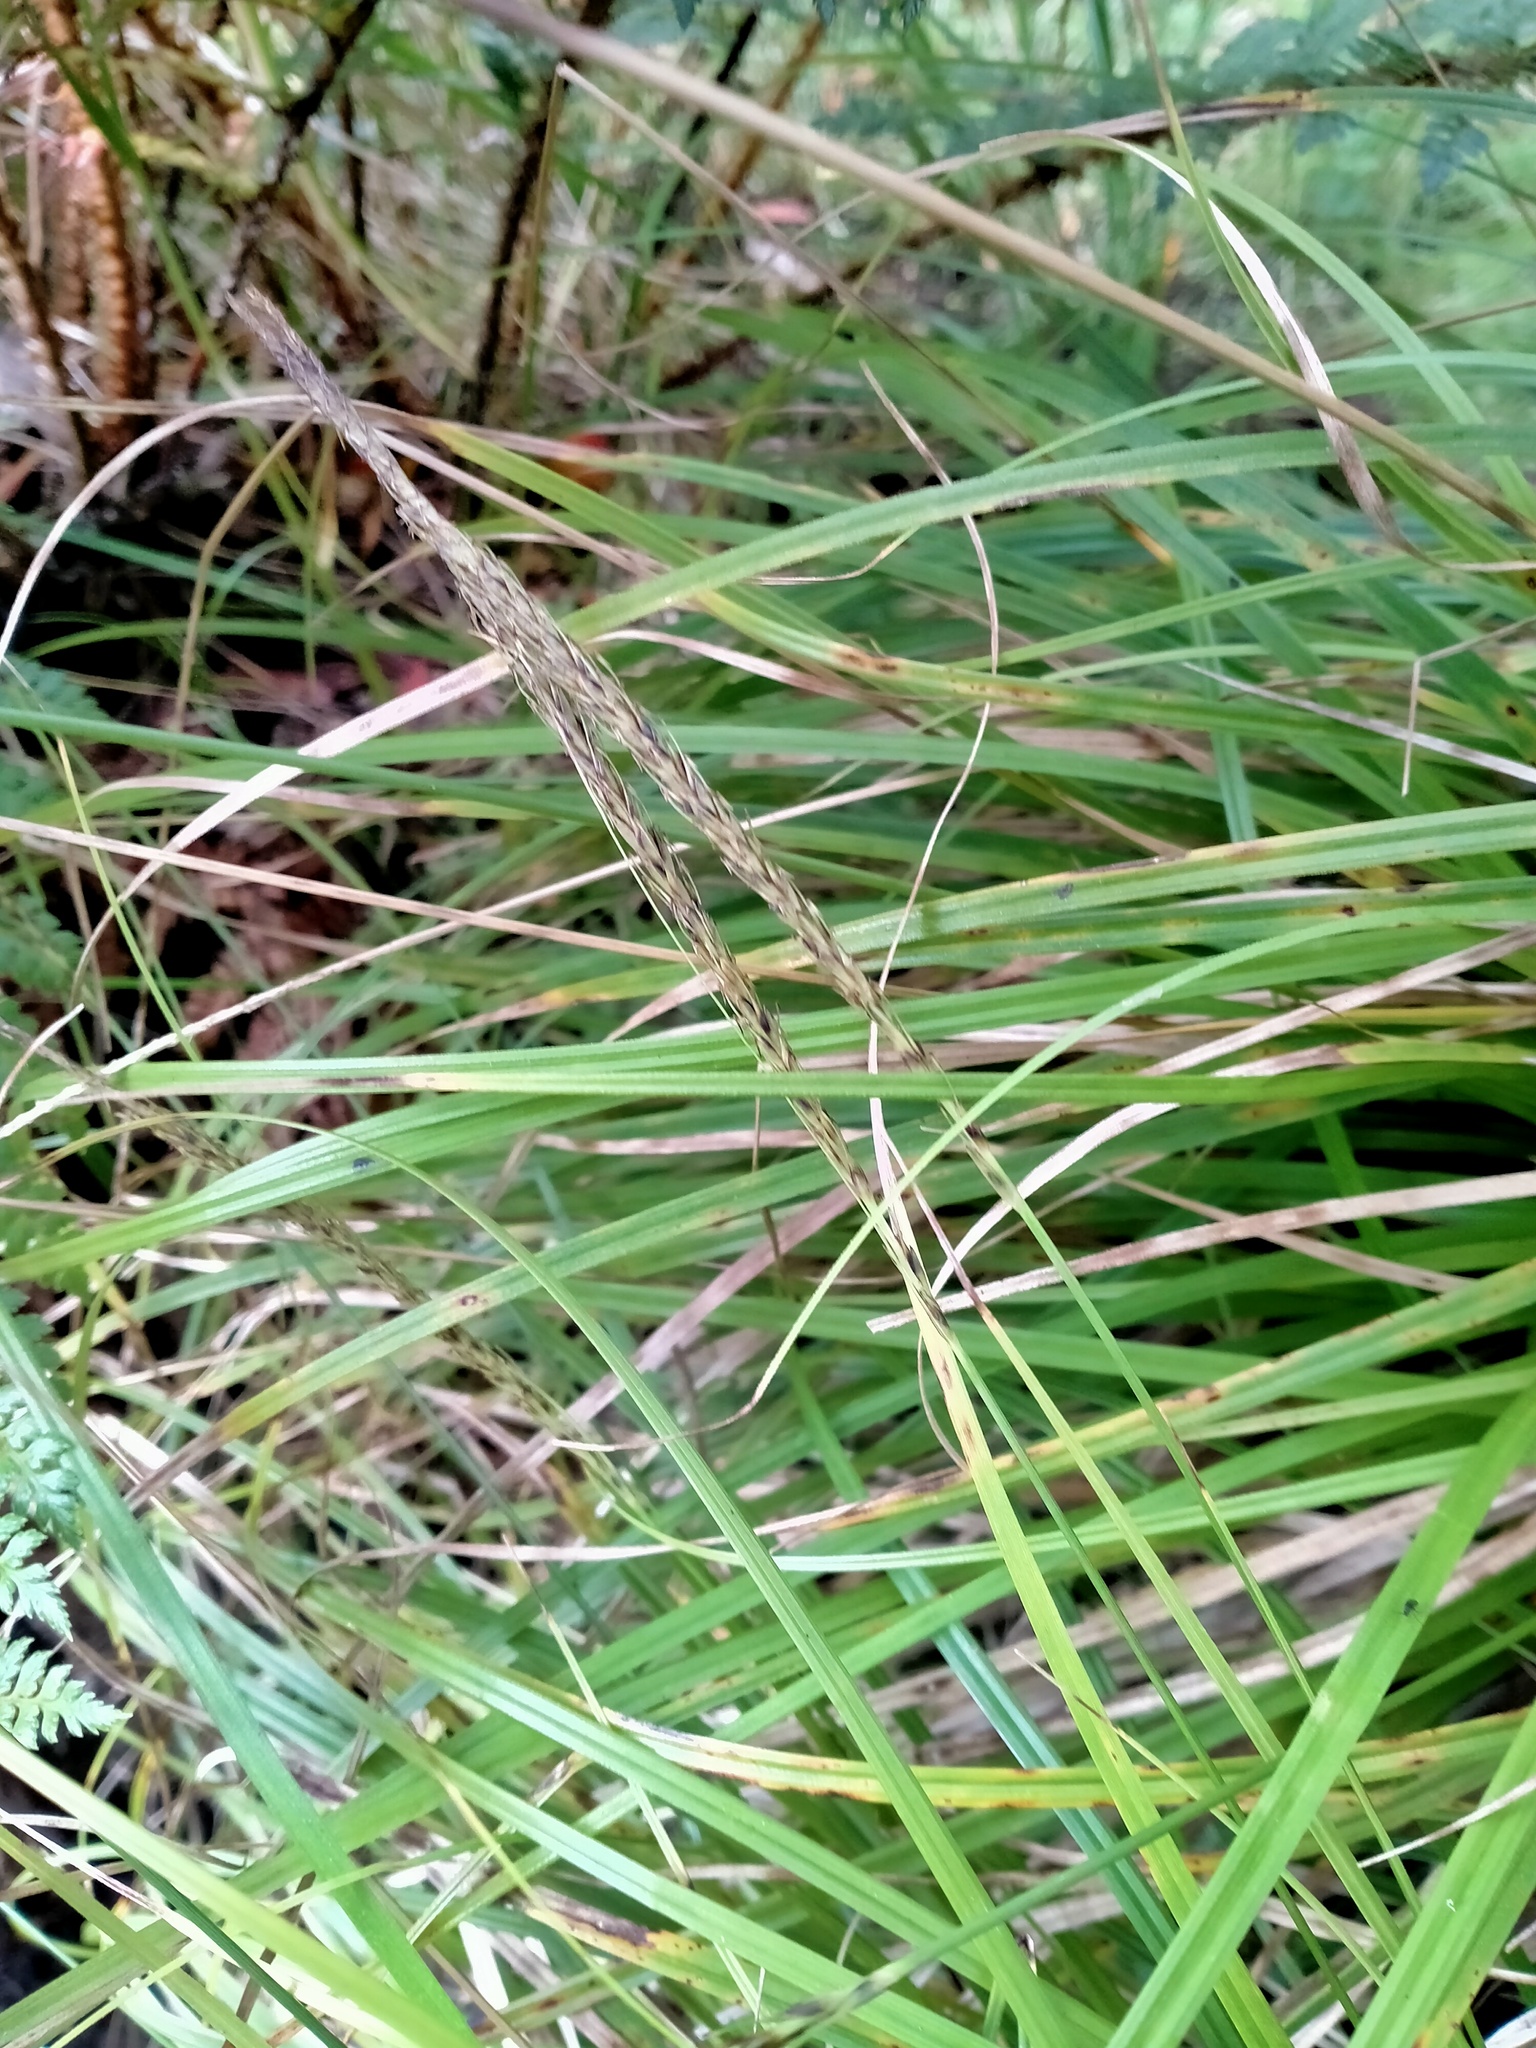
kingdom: Plantae
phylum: Tracheophyta
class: Liliopsida
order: Poales
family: Cyperaceae
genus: Carex
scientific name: Carex uncinata
